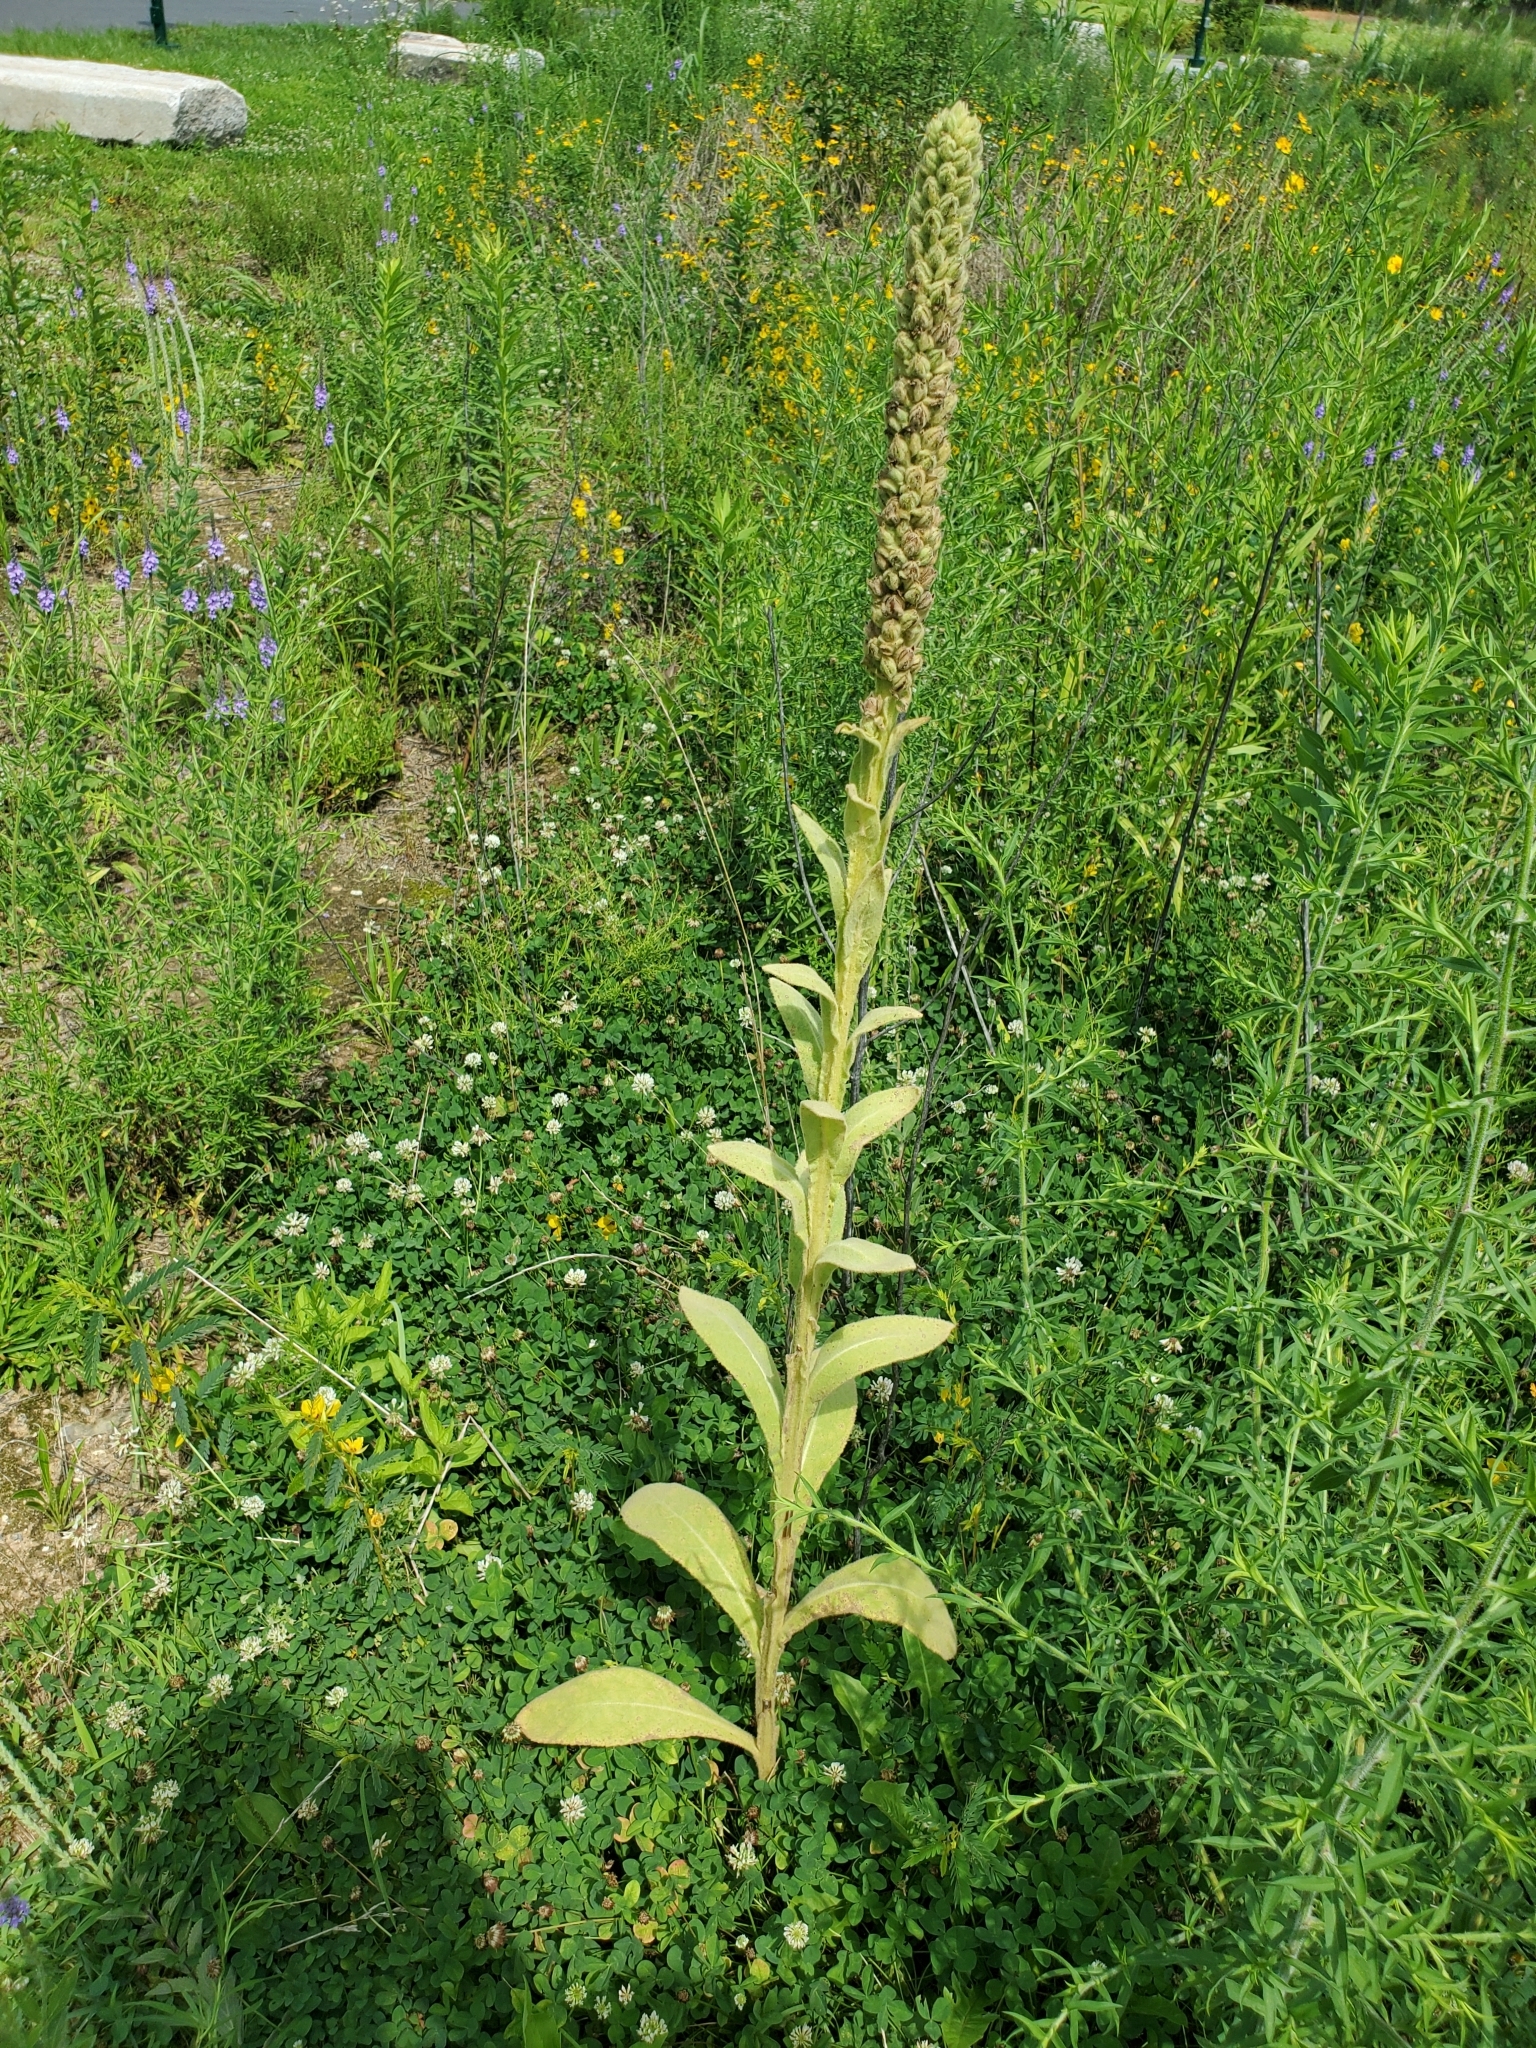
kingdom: Plantae
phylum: Tracheophyta
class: Magnoliopsida
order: Lamiales
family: Scrophulariaceae
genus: Verbascum
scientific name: Verbascum thapsus
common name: Common mullein
